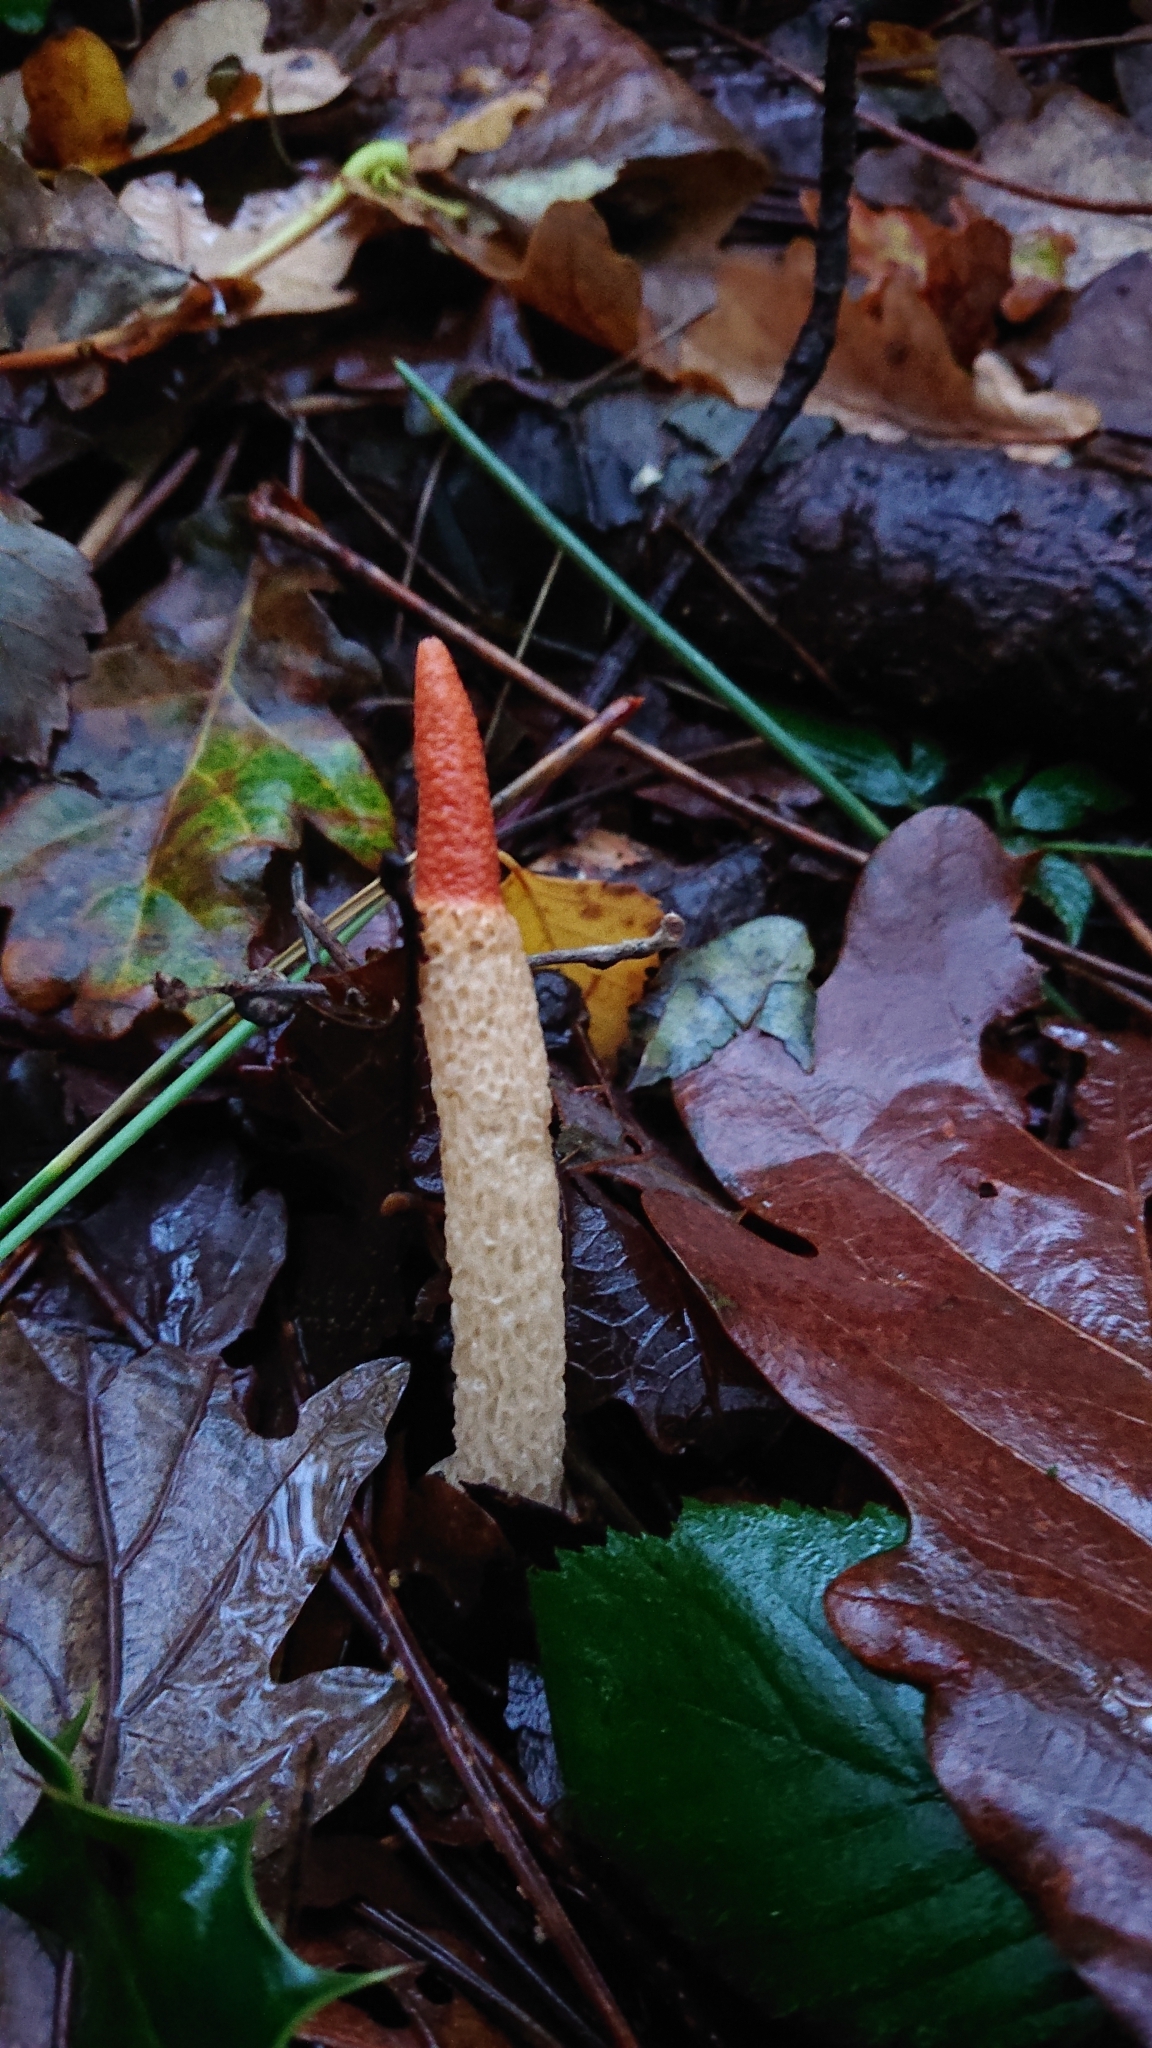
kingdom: Fungi
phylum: Basidiomycota
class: Agaricomycetes
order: Phallales
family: Phallaceae
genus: Mutinus
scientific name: Mutinus caninus
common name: Dog stinkhorn
